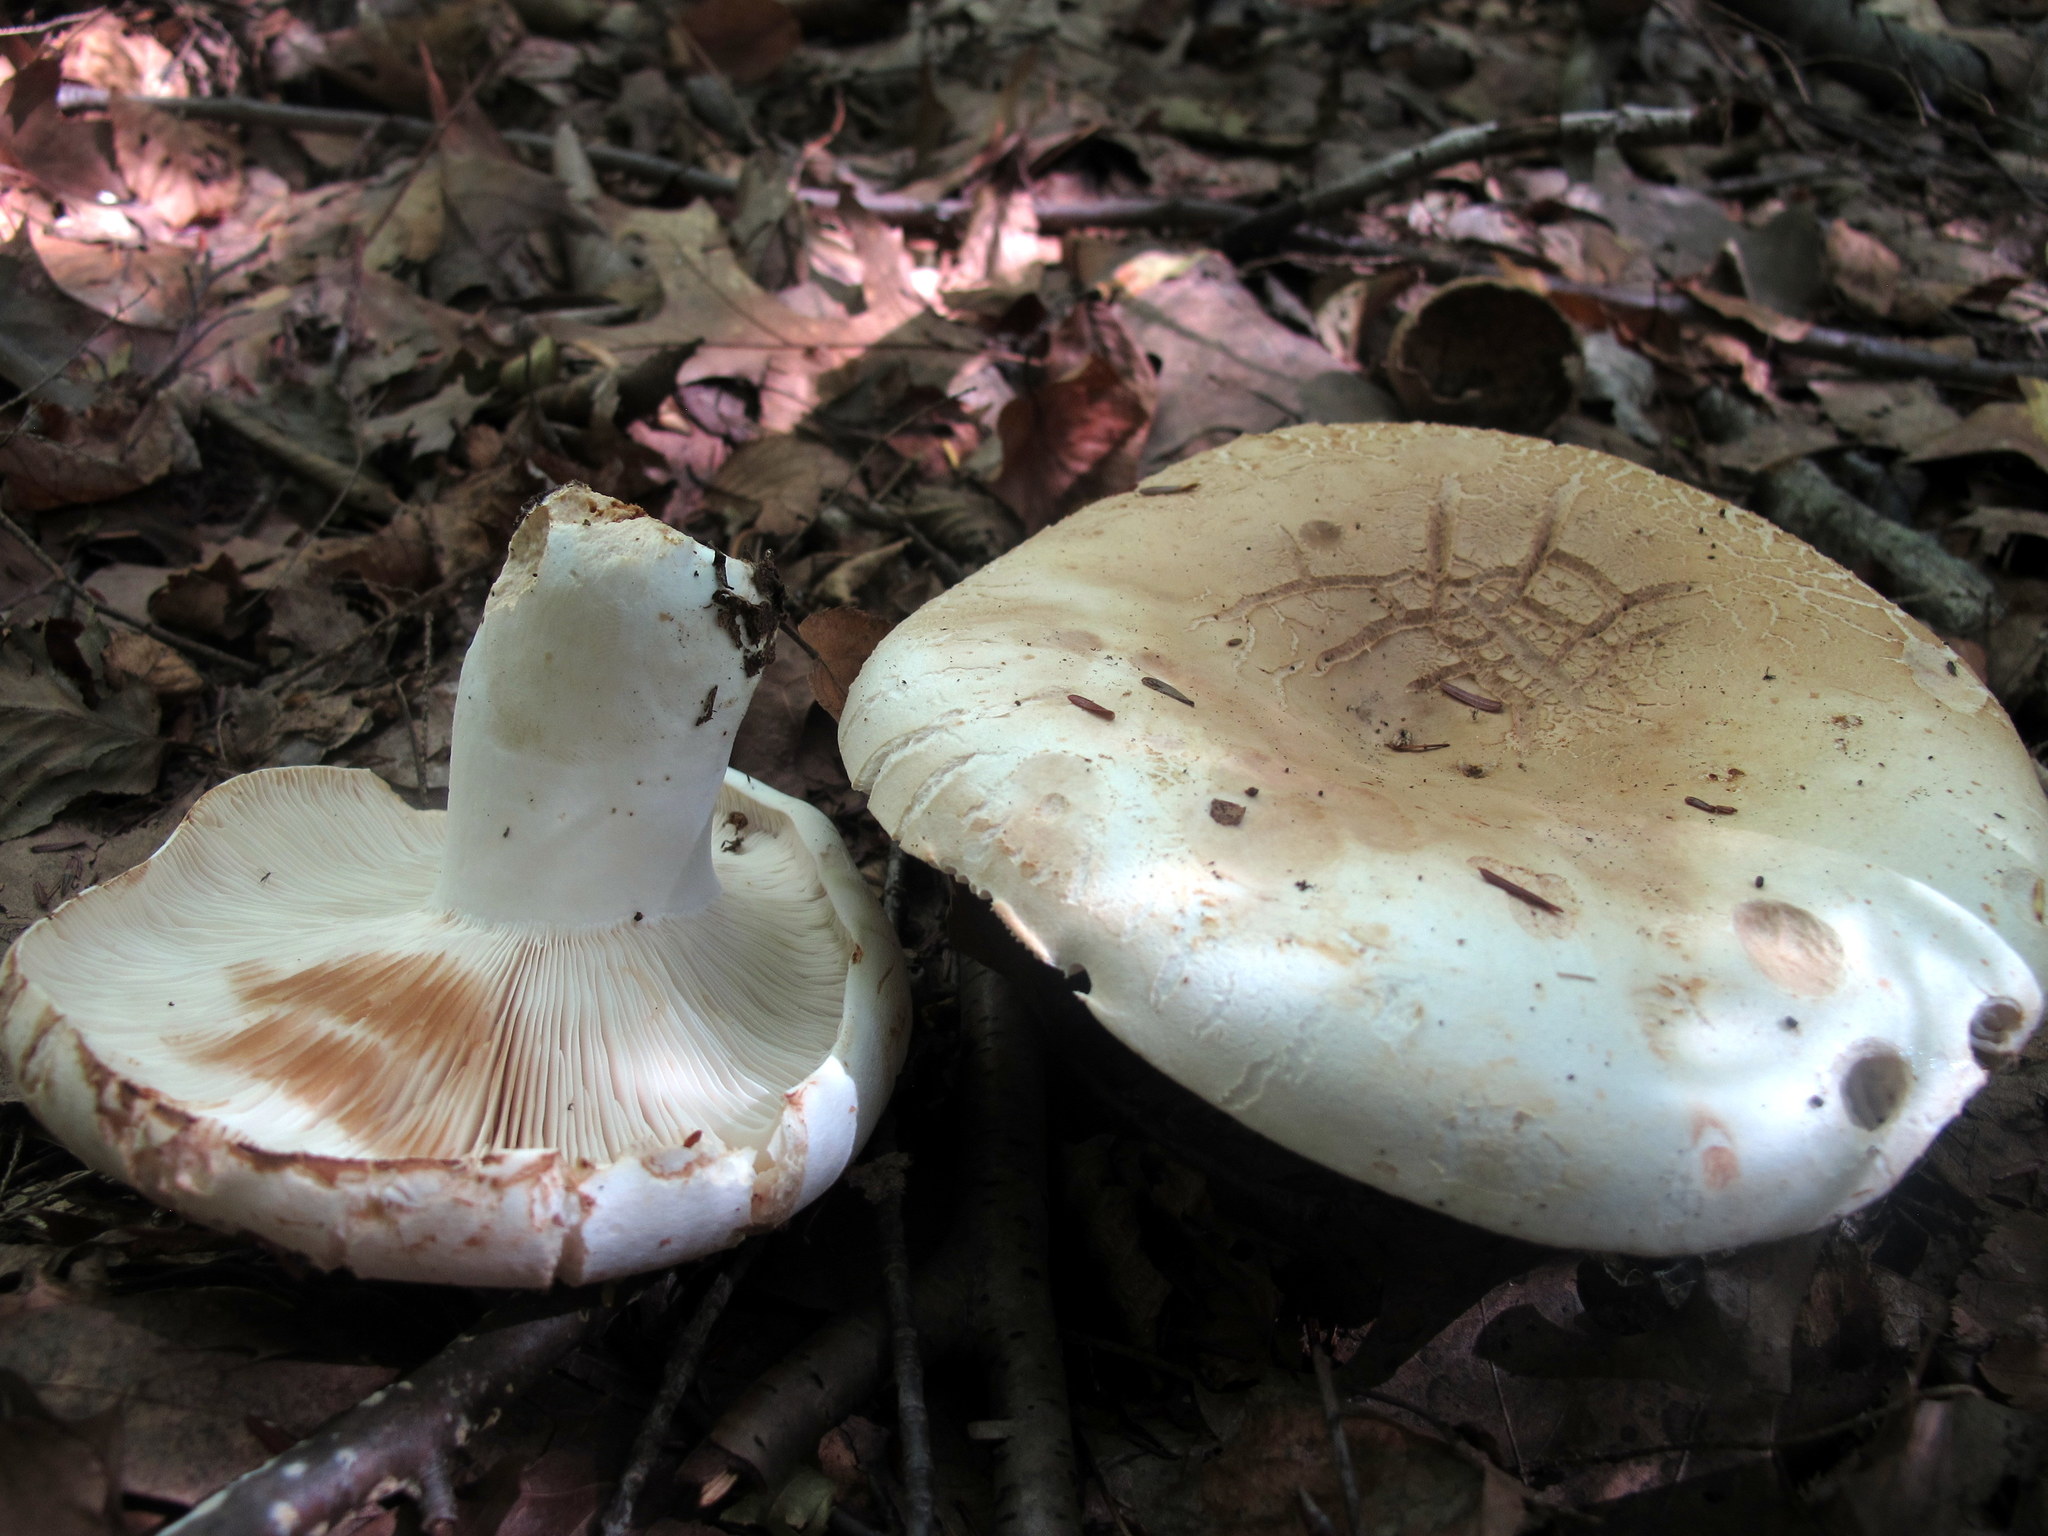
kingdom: Fungi
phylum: Basidiomycota
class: Agaricomycetes
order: Russulales
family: Russulaceae
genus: Russula
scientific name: Russula compacta
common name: Fishbiscuit russula
